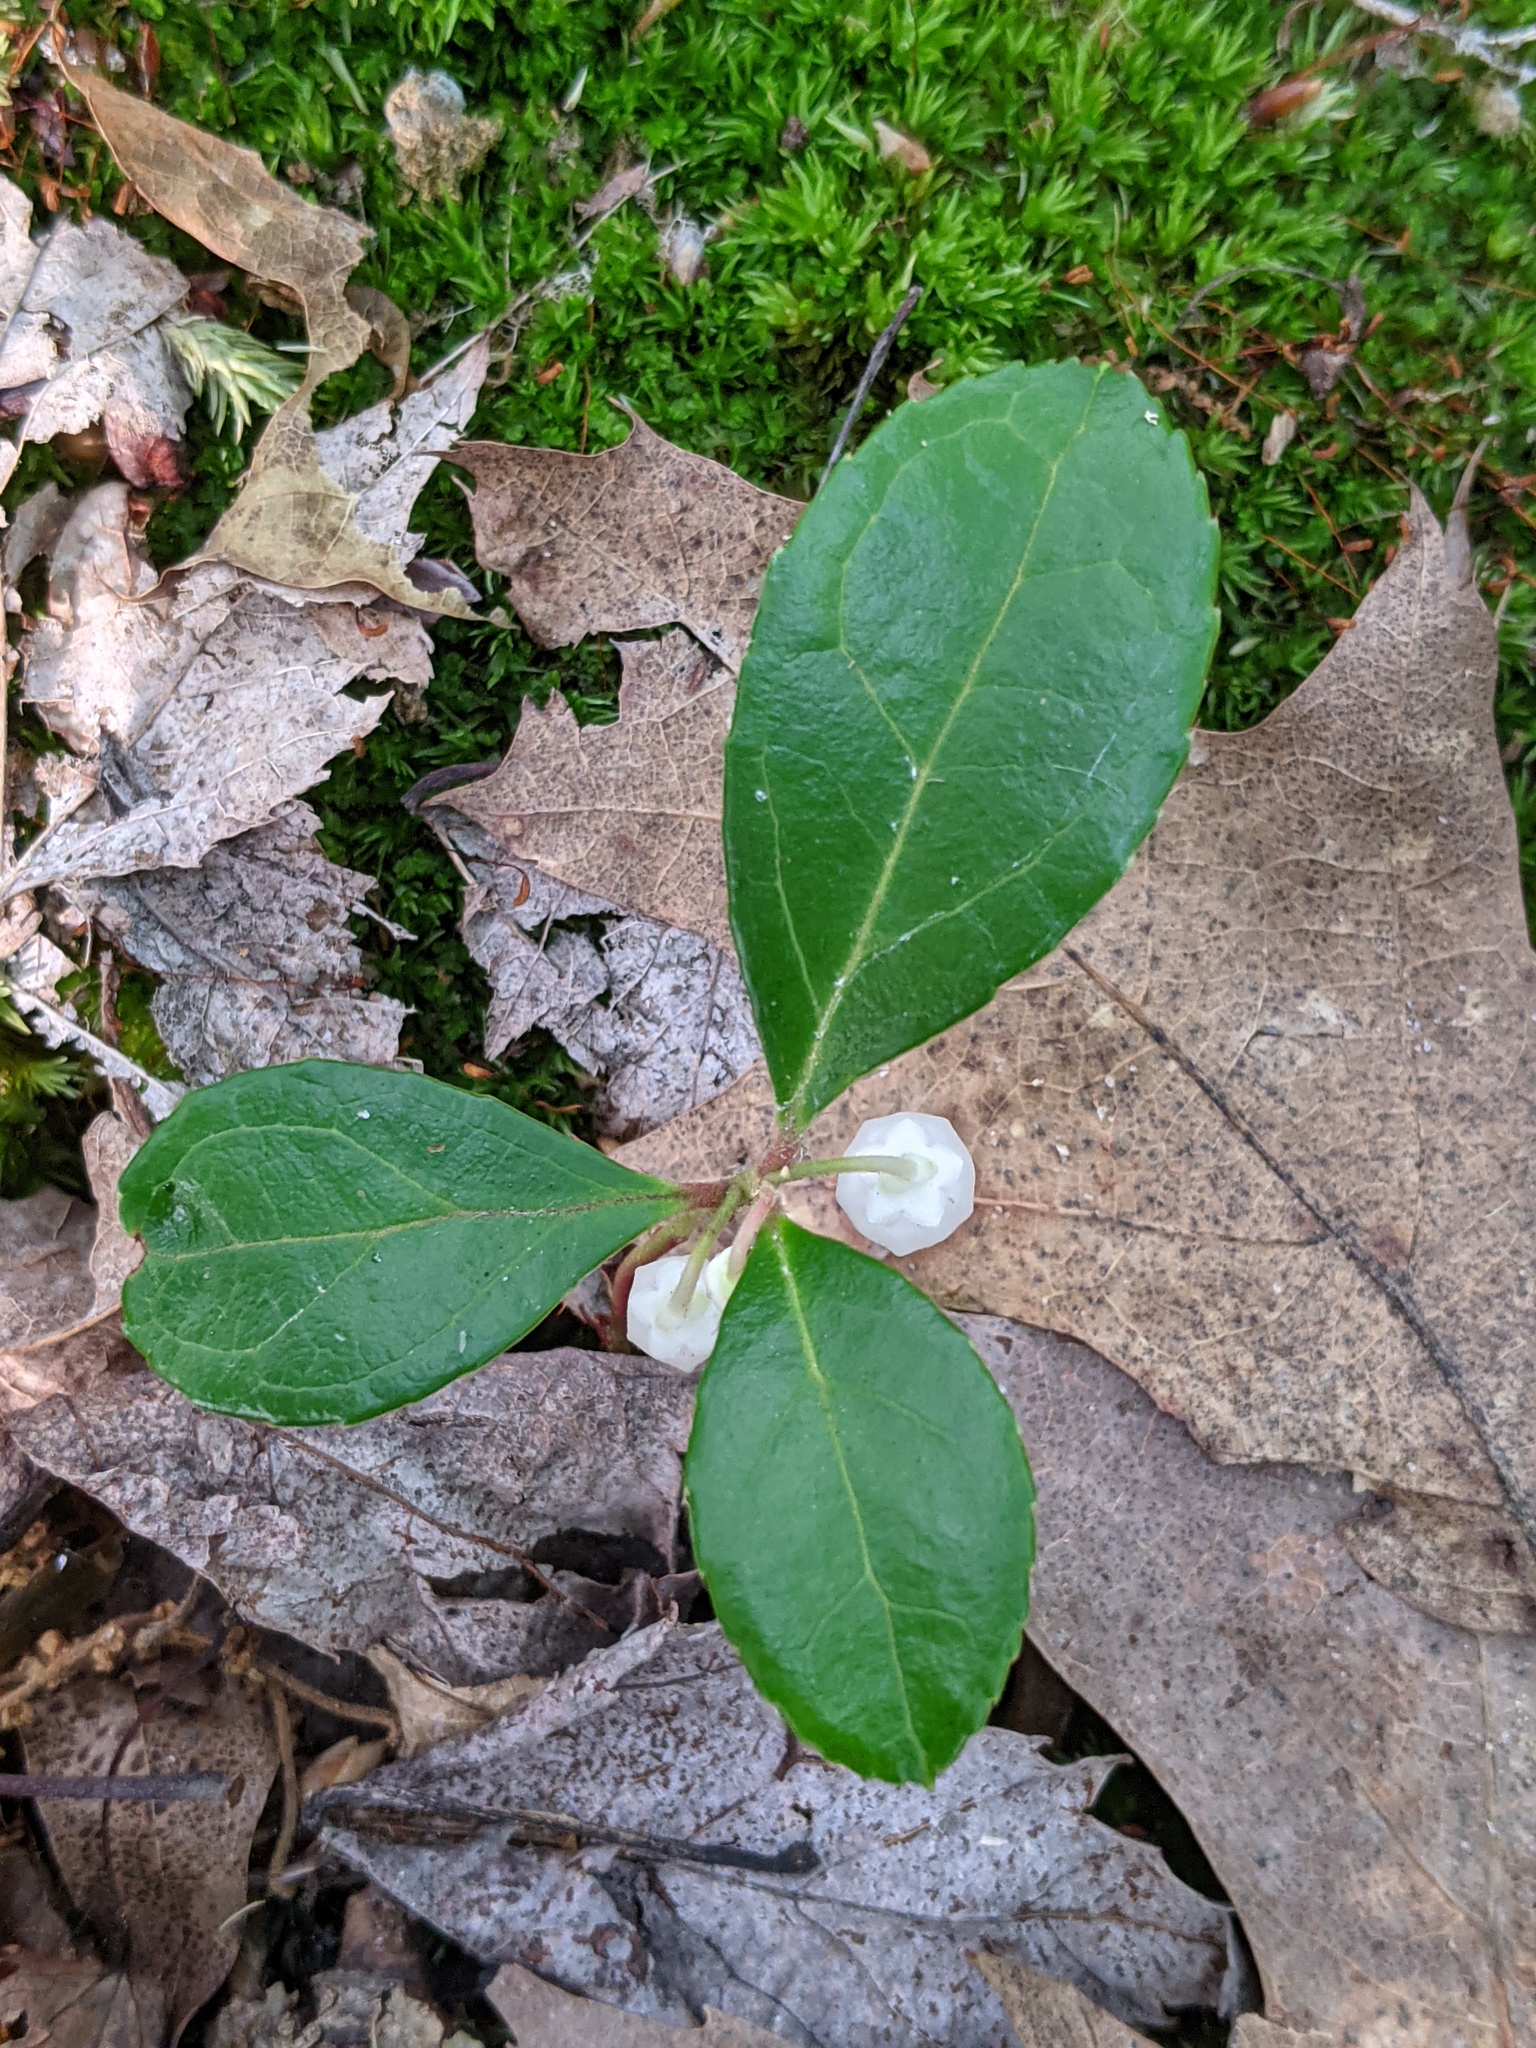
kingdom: Plantae
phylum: Tracheophyta
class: Magnoliopsida
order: Ericales
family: Ericaceae
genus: Gaultheria
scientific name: Gaultheria procumbens
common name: Checkerberry
